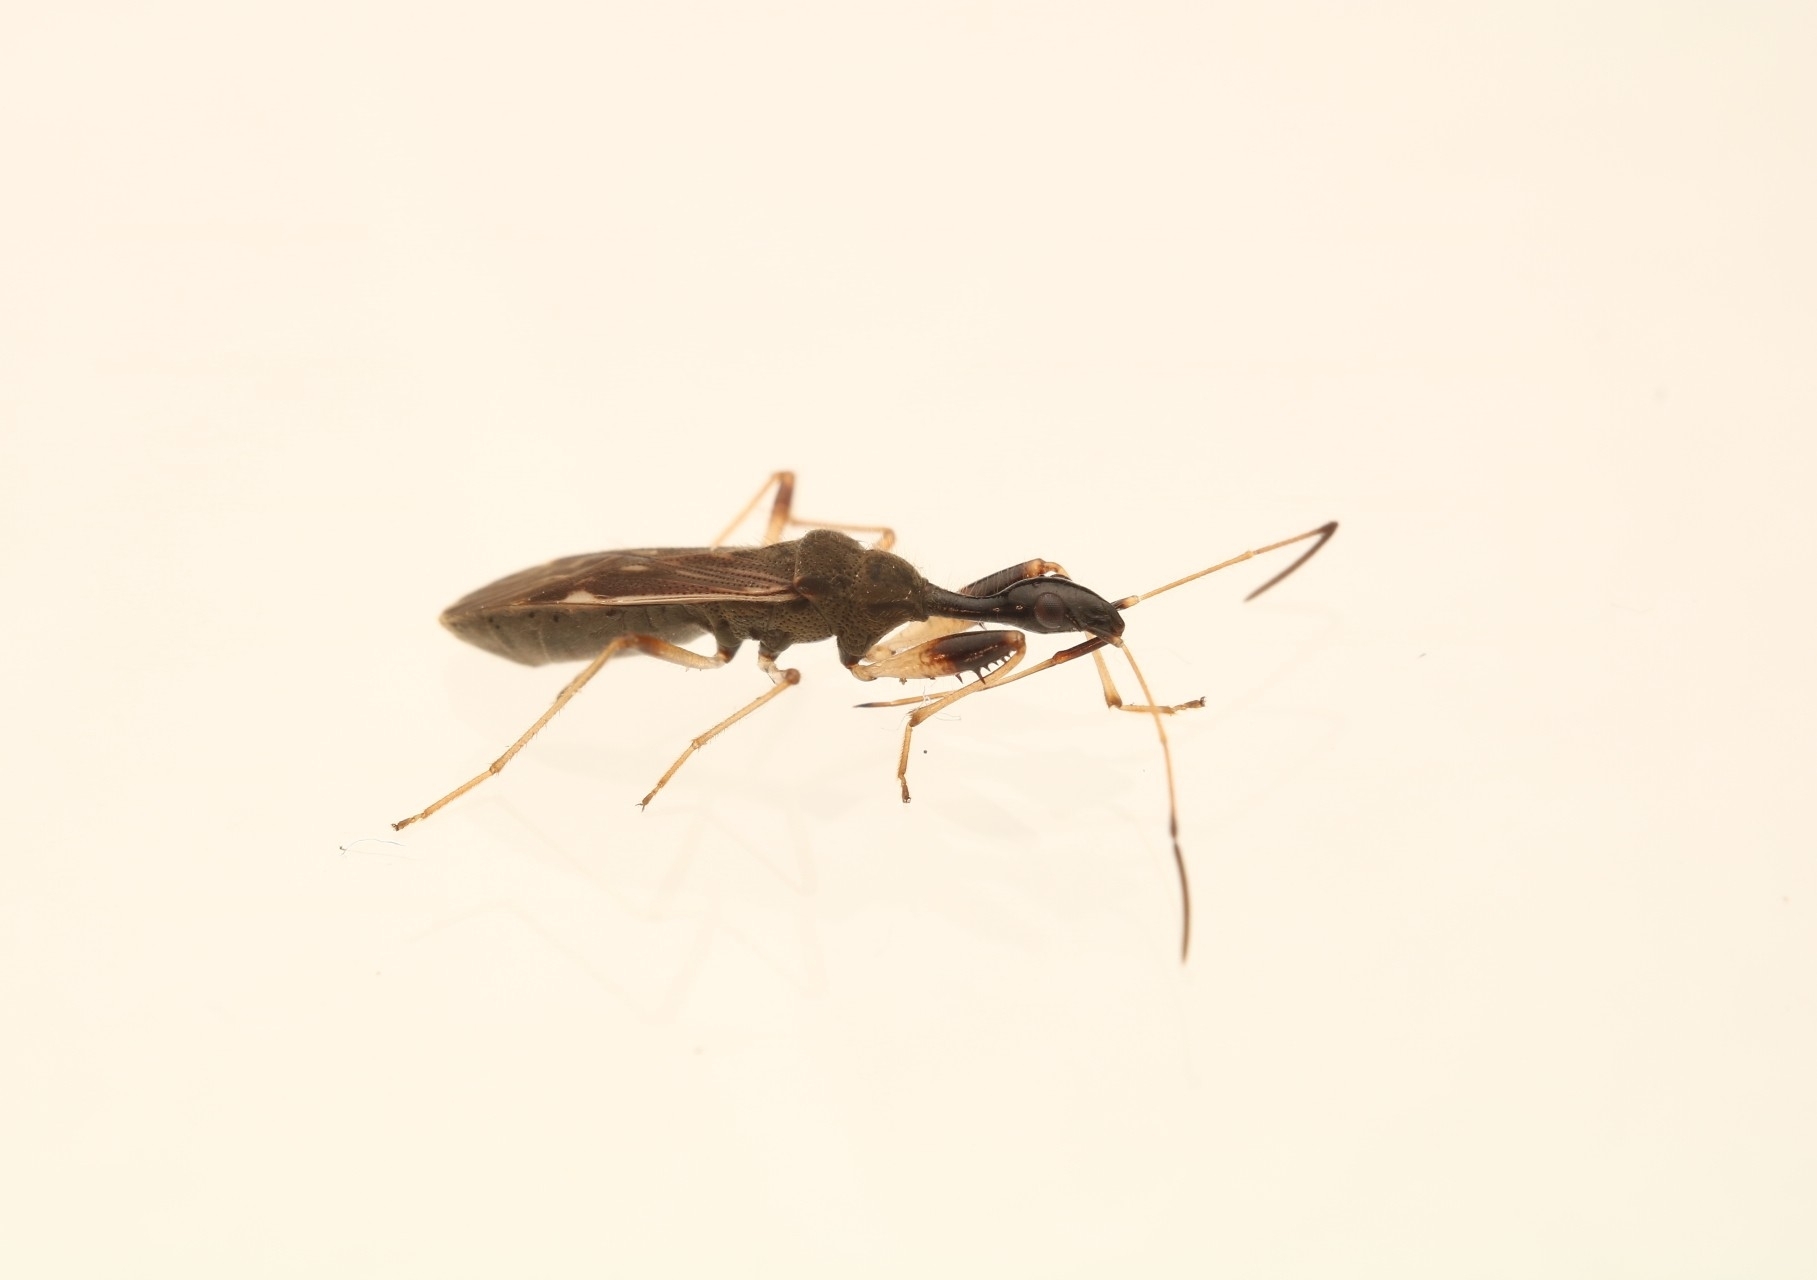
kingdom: Animalia
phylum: Arthropoda
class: Insecta
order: Hemiptera
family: Rhyparochromidae
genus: Myodocha
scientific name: Myodocha serripes
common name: Long-necked seed bug
